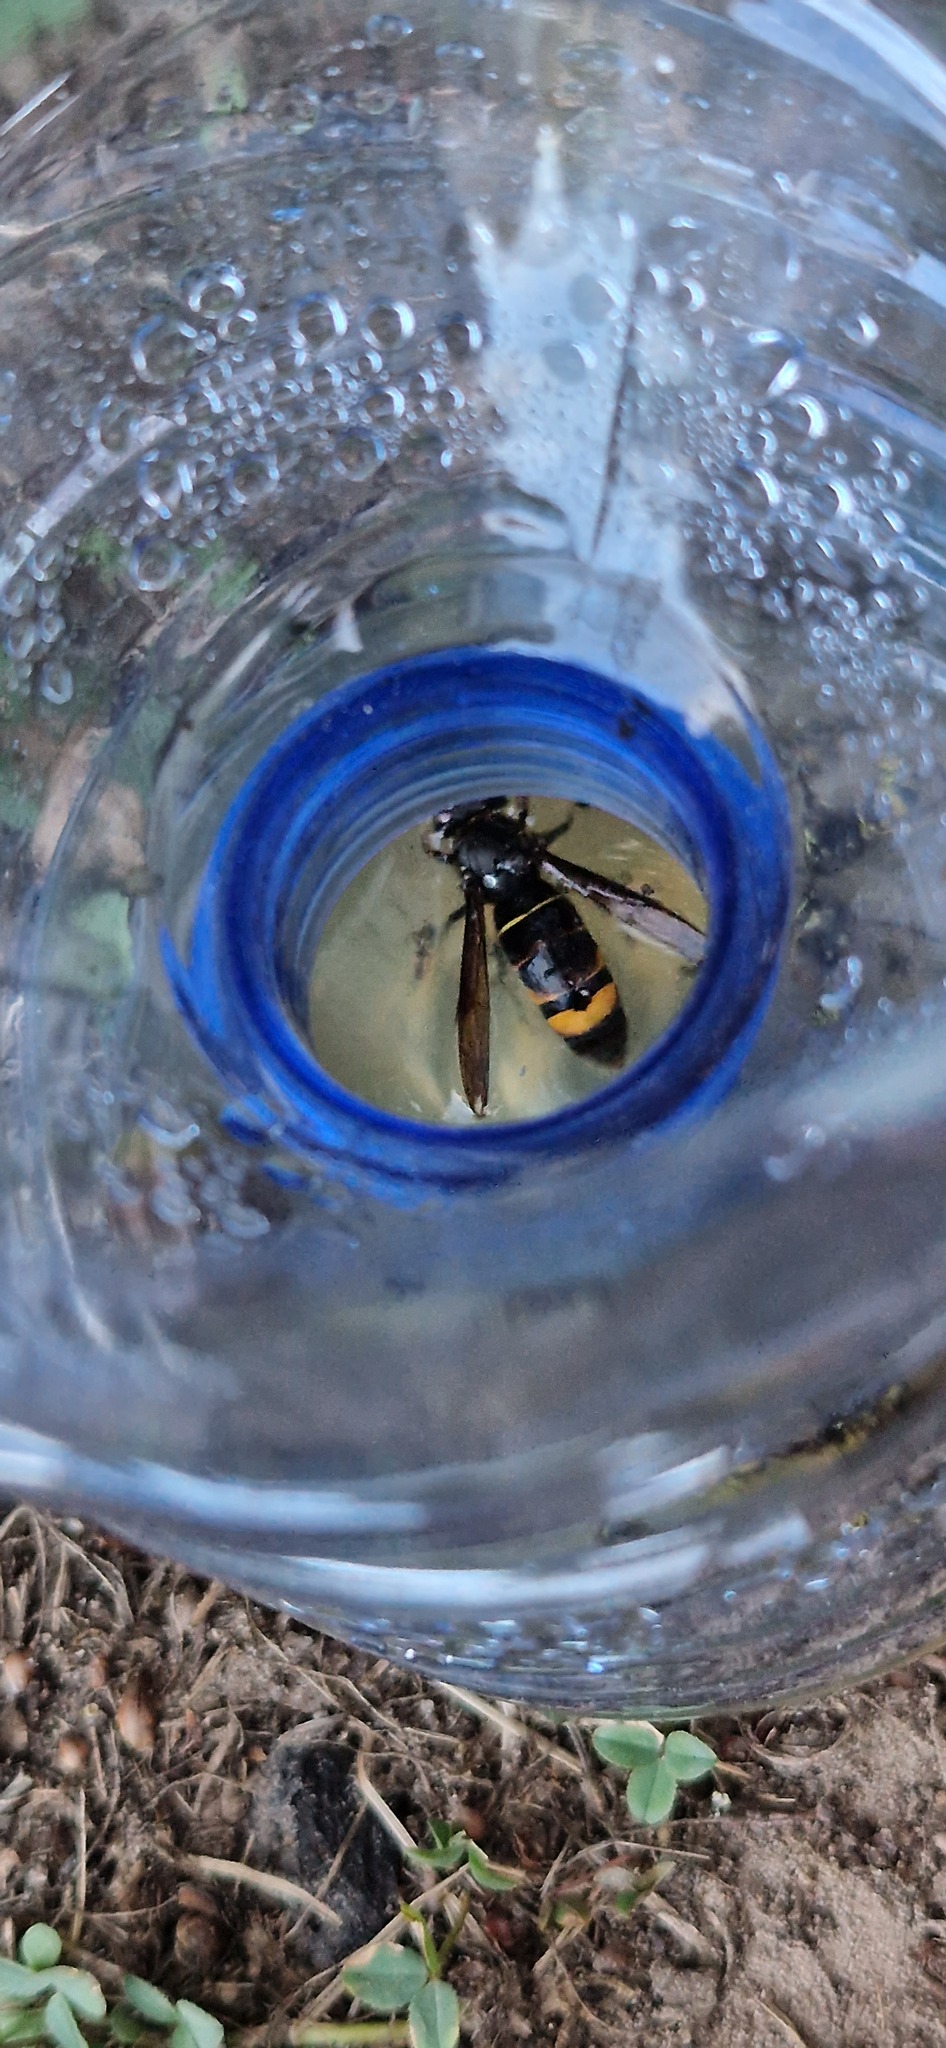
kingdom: Animalia
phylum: Arthropoda
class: Insecta
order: Hymenoptera
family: Vespidae
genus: Vespa
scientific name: Vespa velutina
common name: Asian hornet
